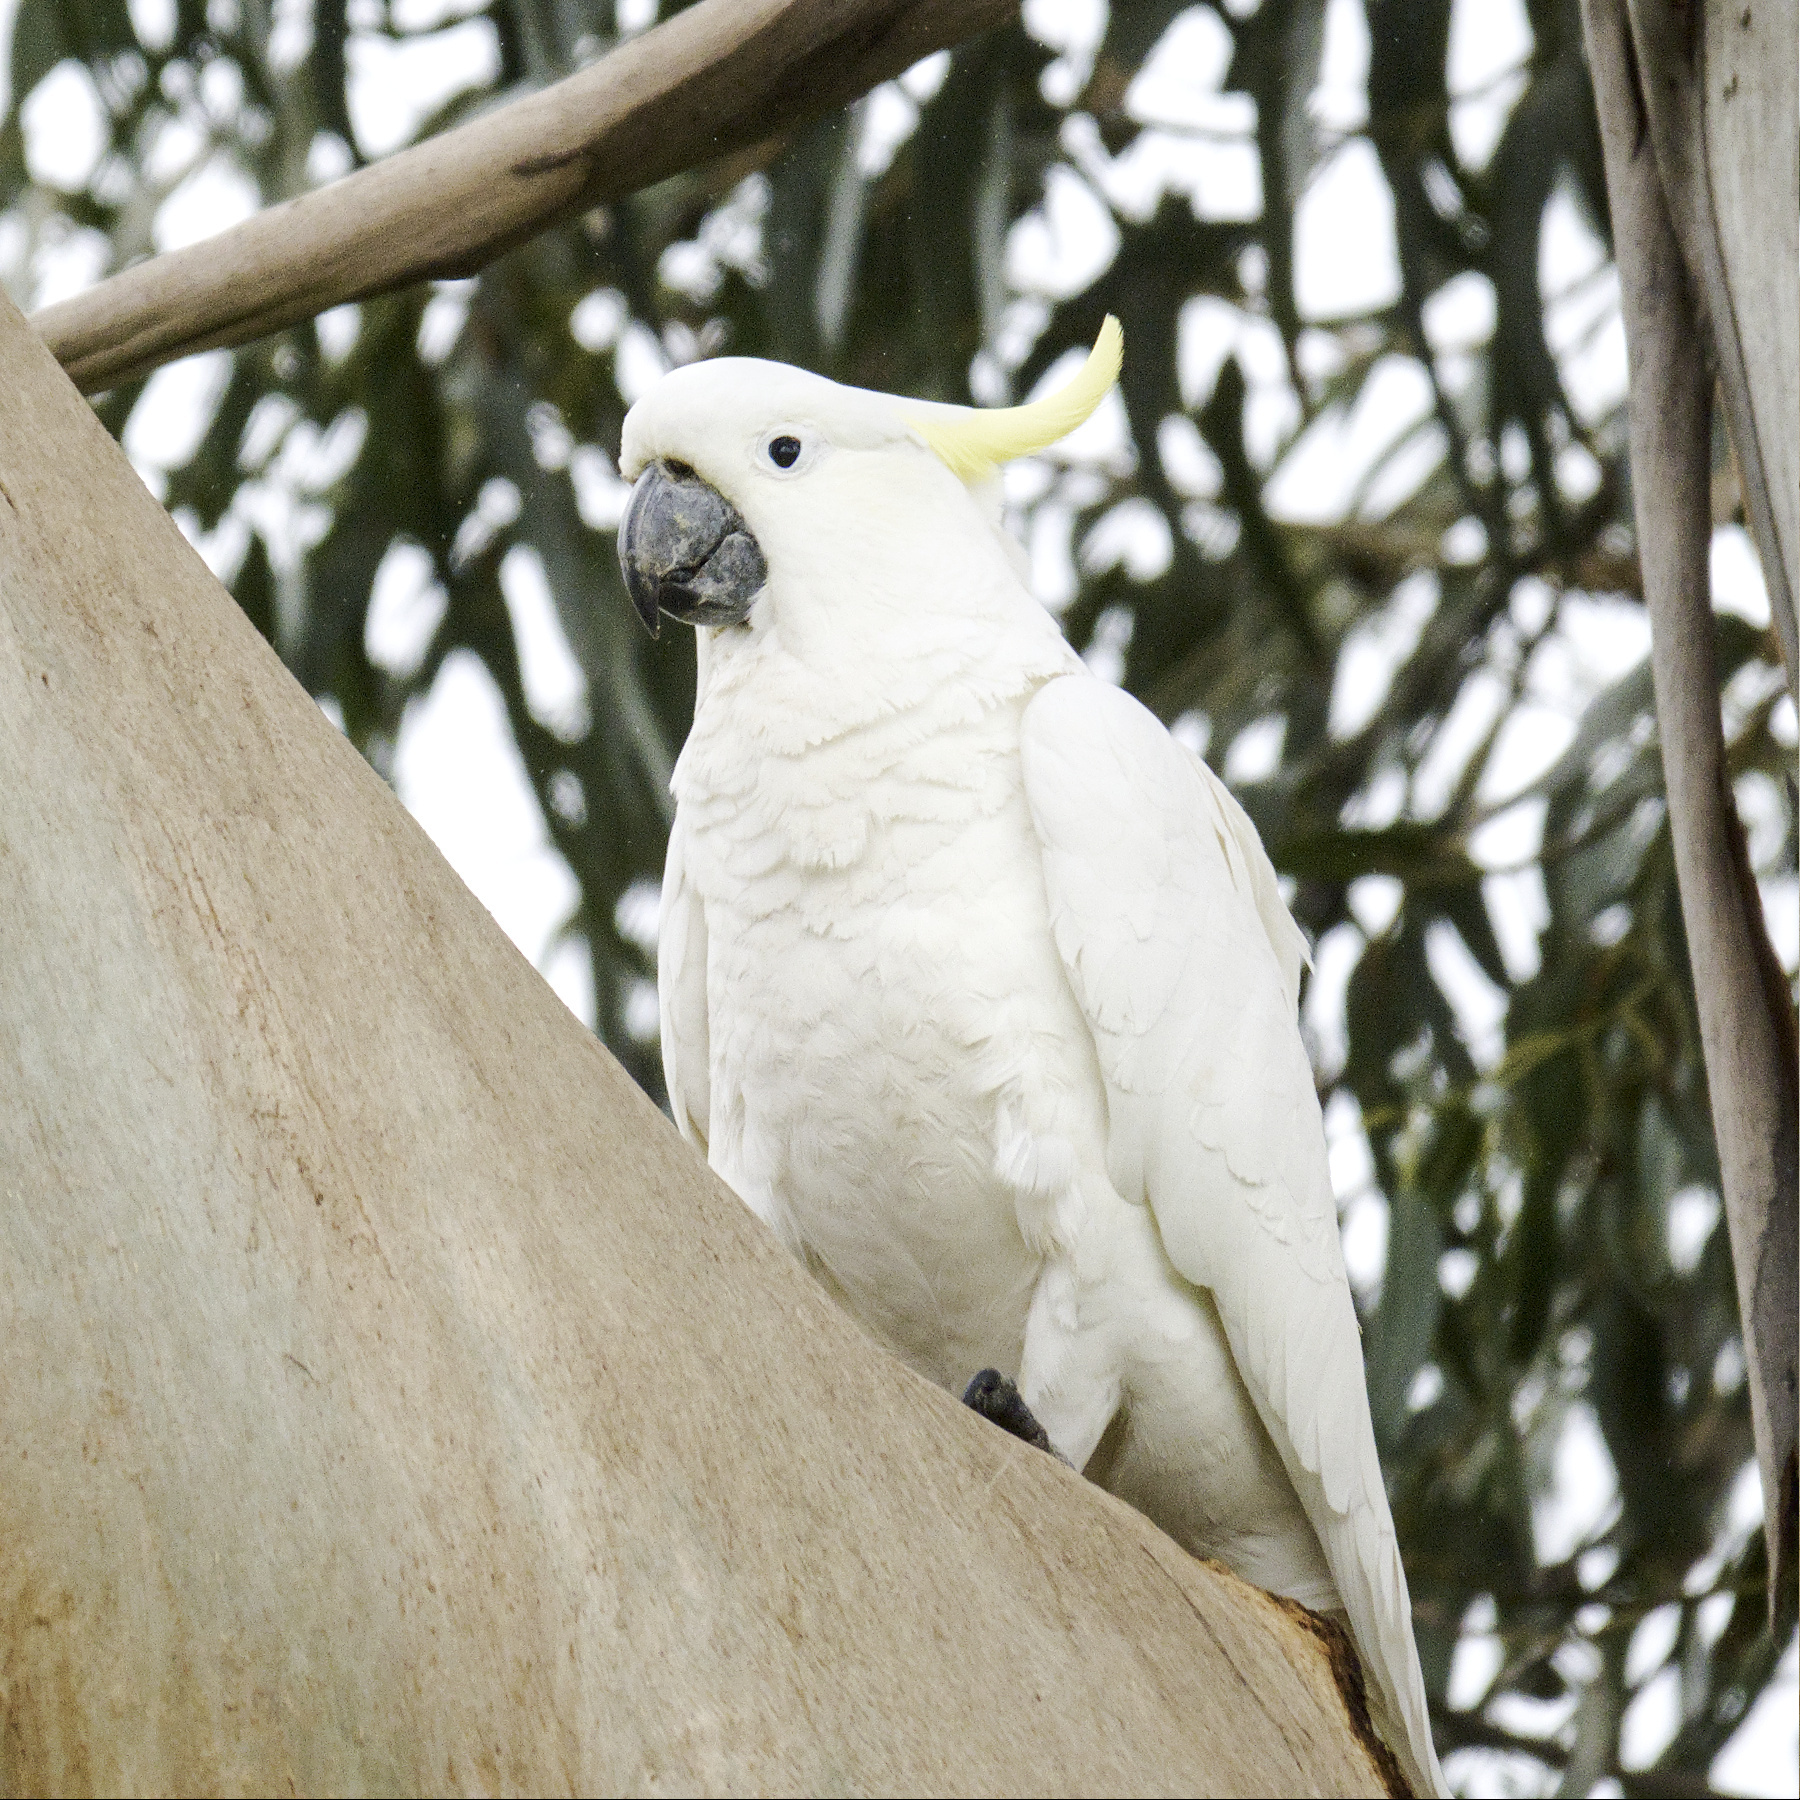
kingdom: Animalia
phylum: Chordata
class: Aves
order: Psittaciformes
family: Psittacidae
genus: Cacatua
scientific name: Cacatua galerita
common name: Sulphur-crested cockatoo
